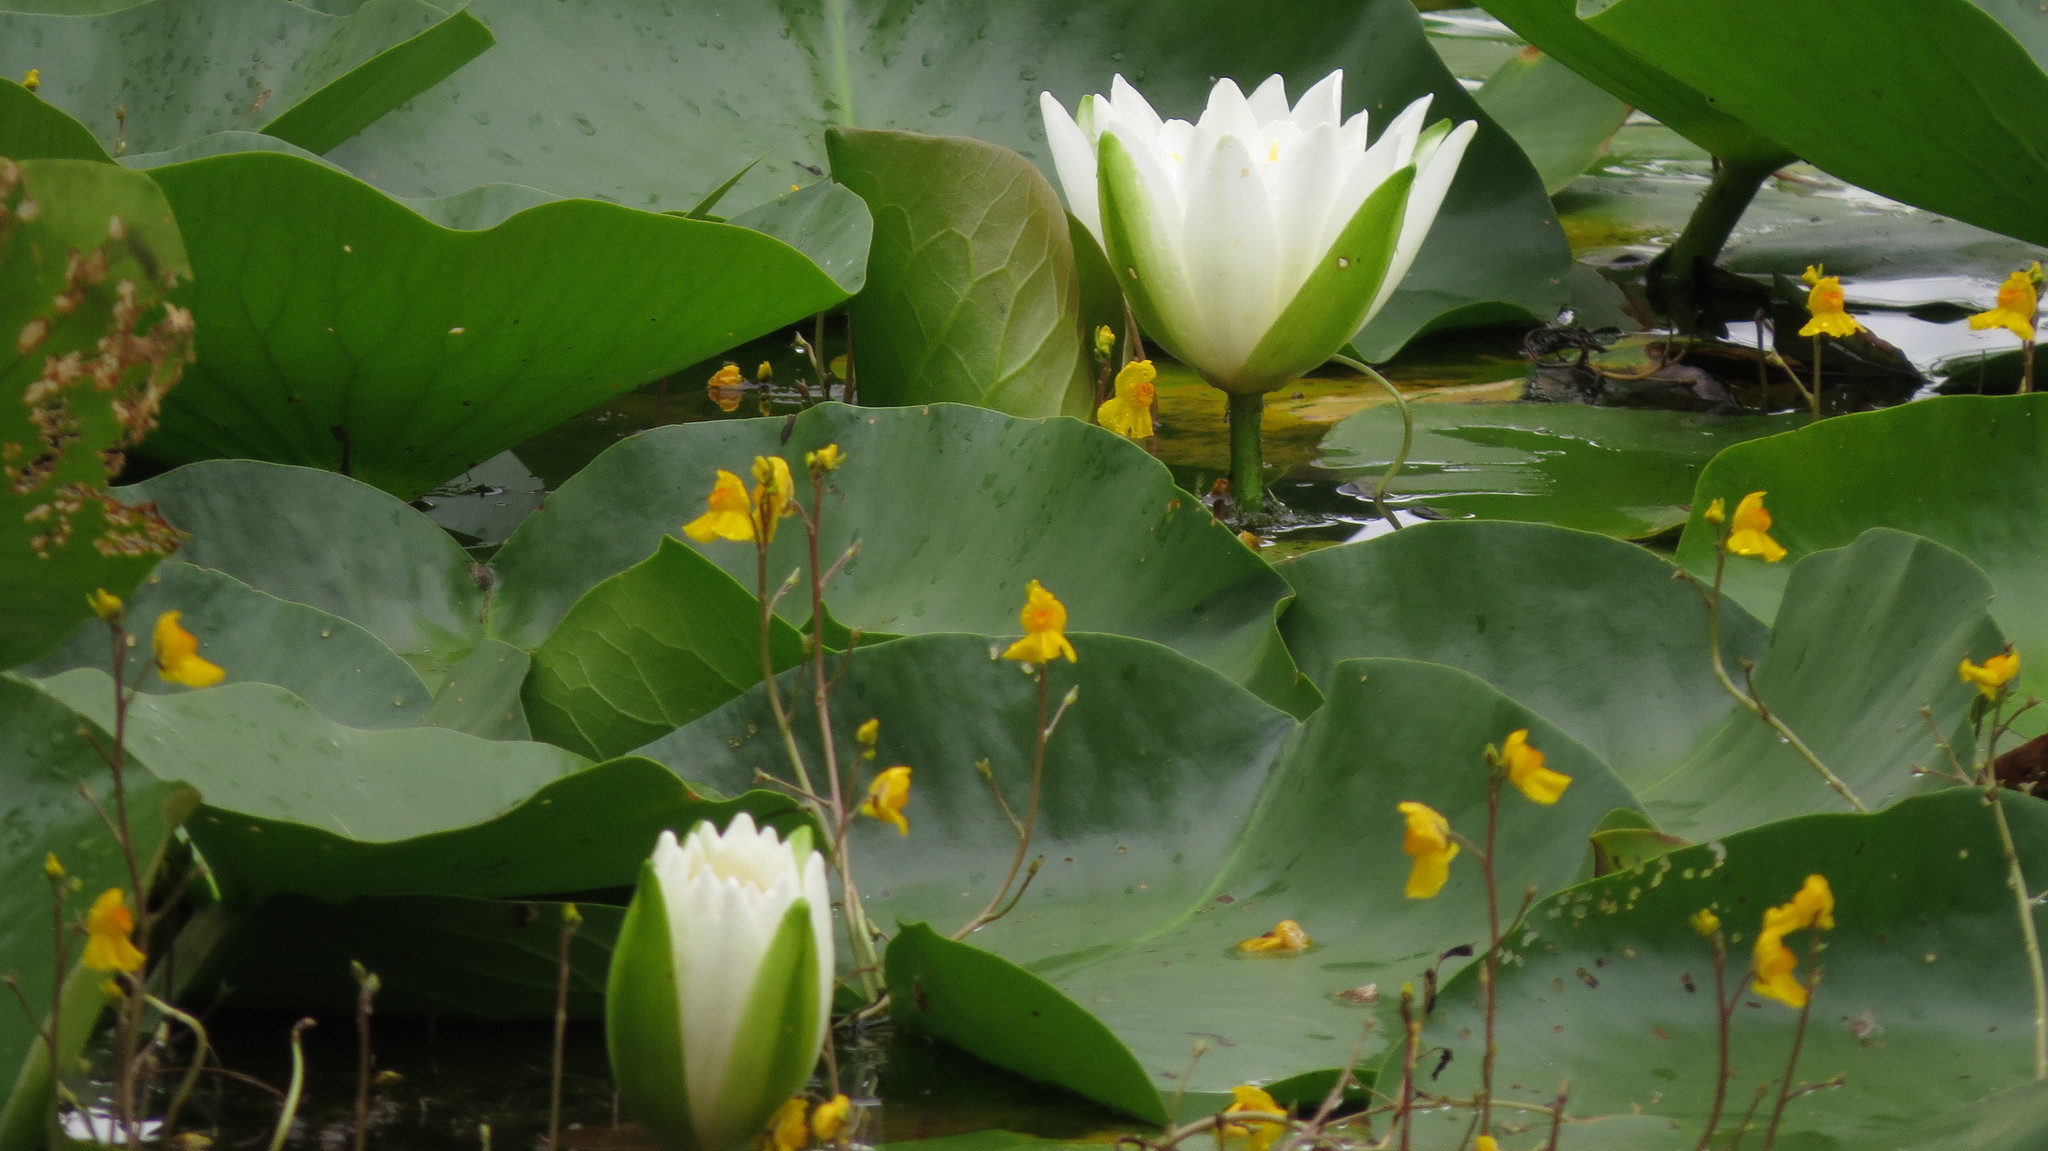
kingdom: Plantae
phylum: Tracheophyta
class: Magnoliopsida
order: Nymphaeales
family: Nymphaeaceae
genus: Nymphaea
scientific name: Nymphaea odorata
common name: Fragrant water-lily
